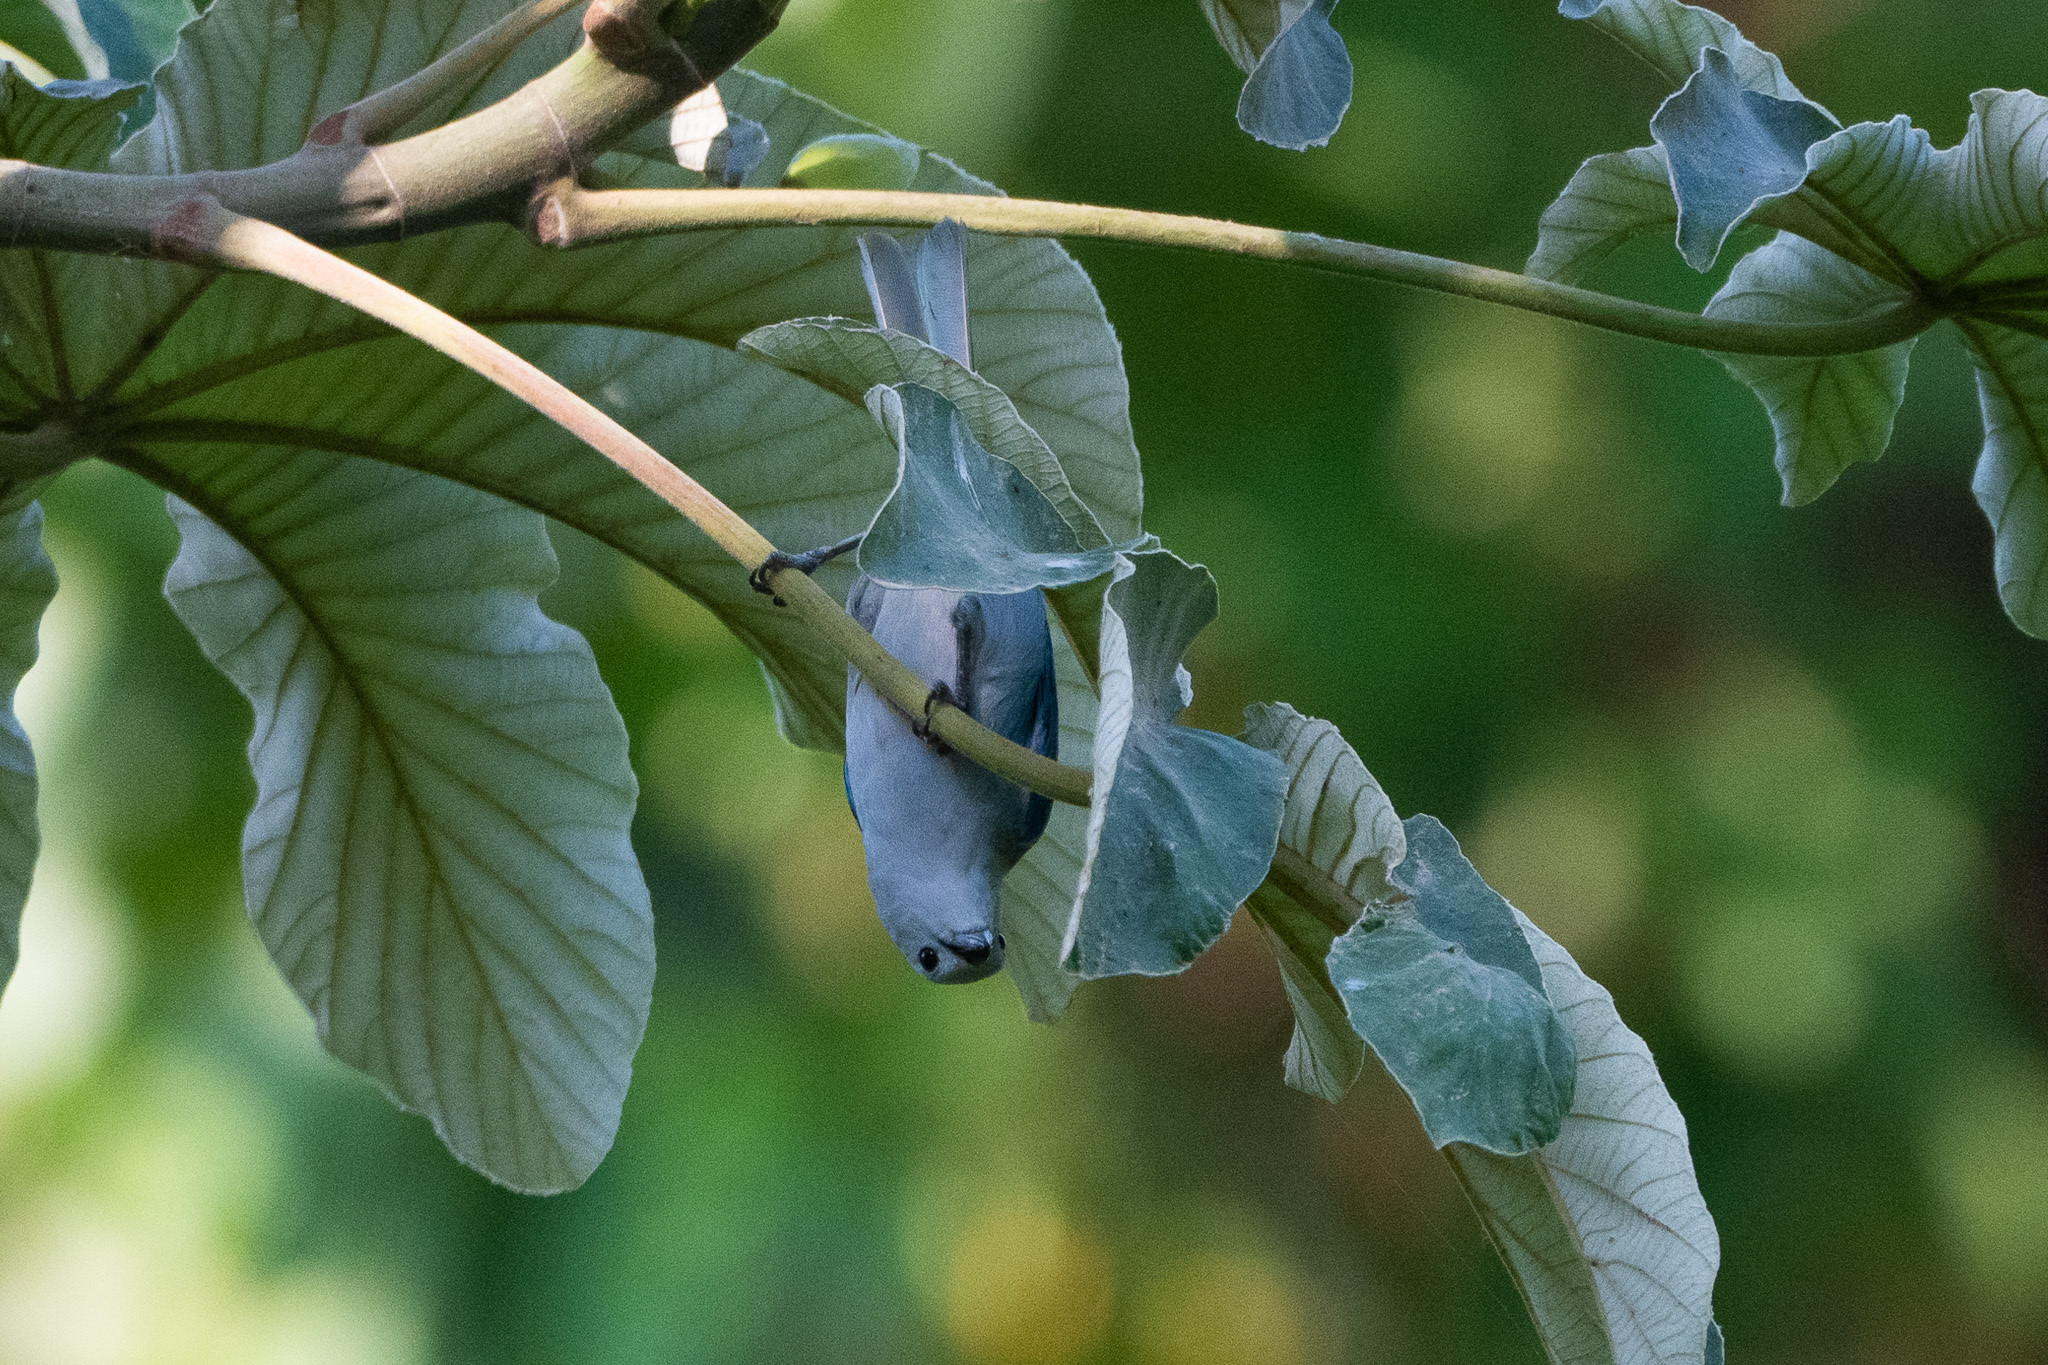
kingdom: Animalia
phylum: Chordata
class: Aves
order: Passeriformes
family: Thraupidae
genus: Thraupis
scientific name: Thraupis episcopus
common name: Blue-grey tanager
